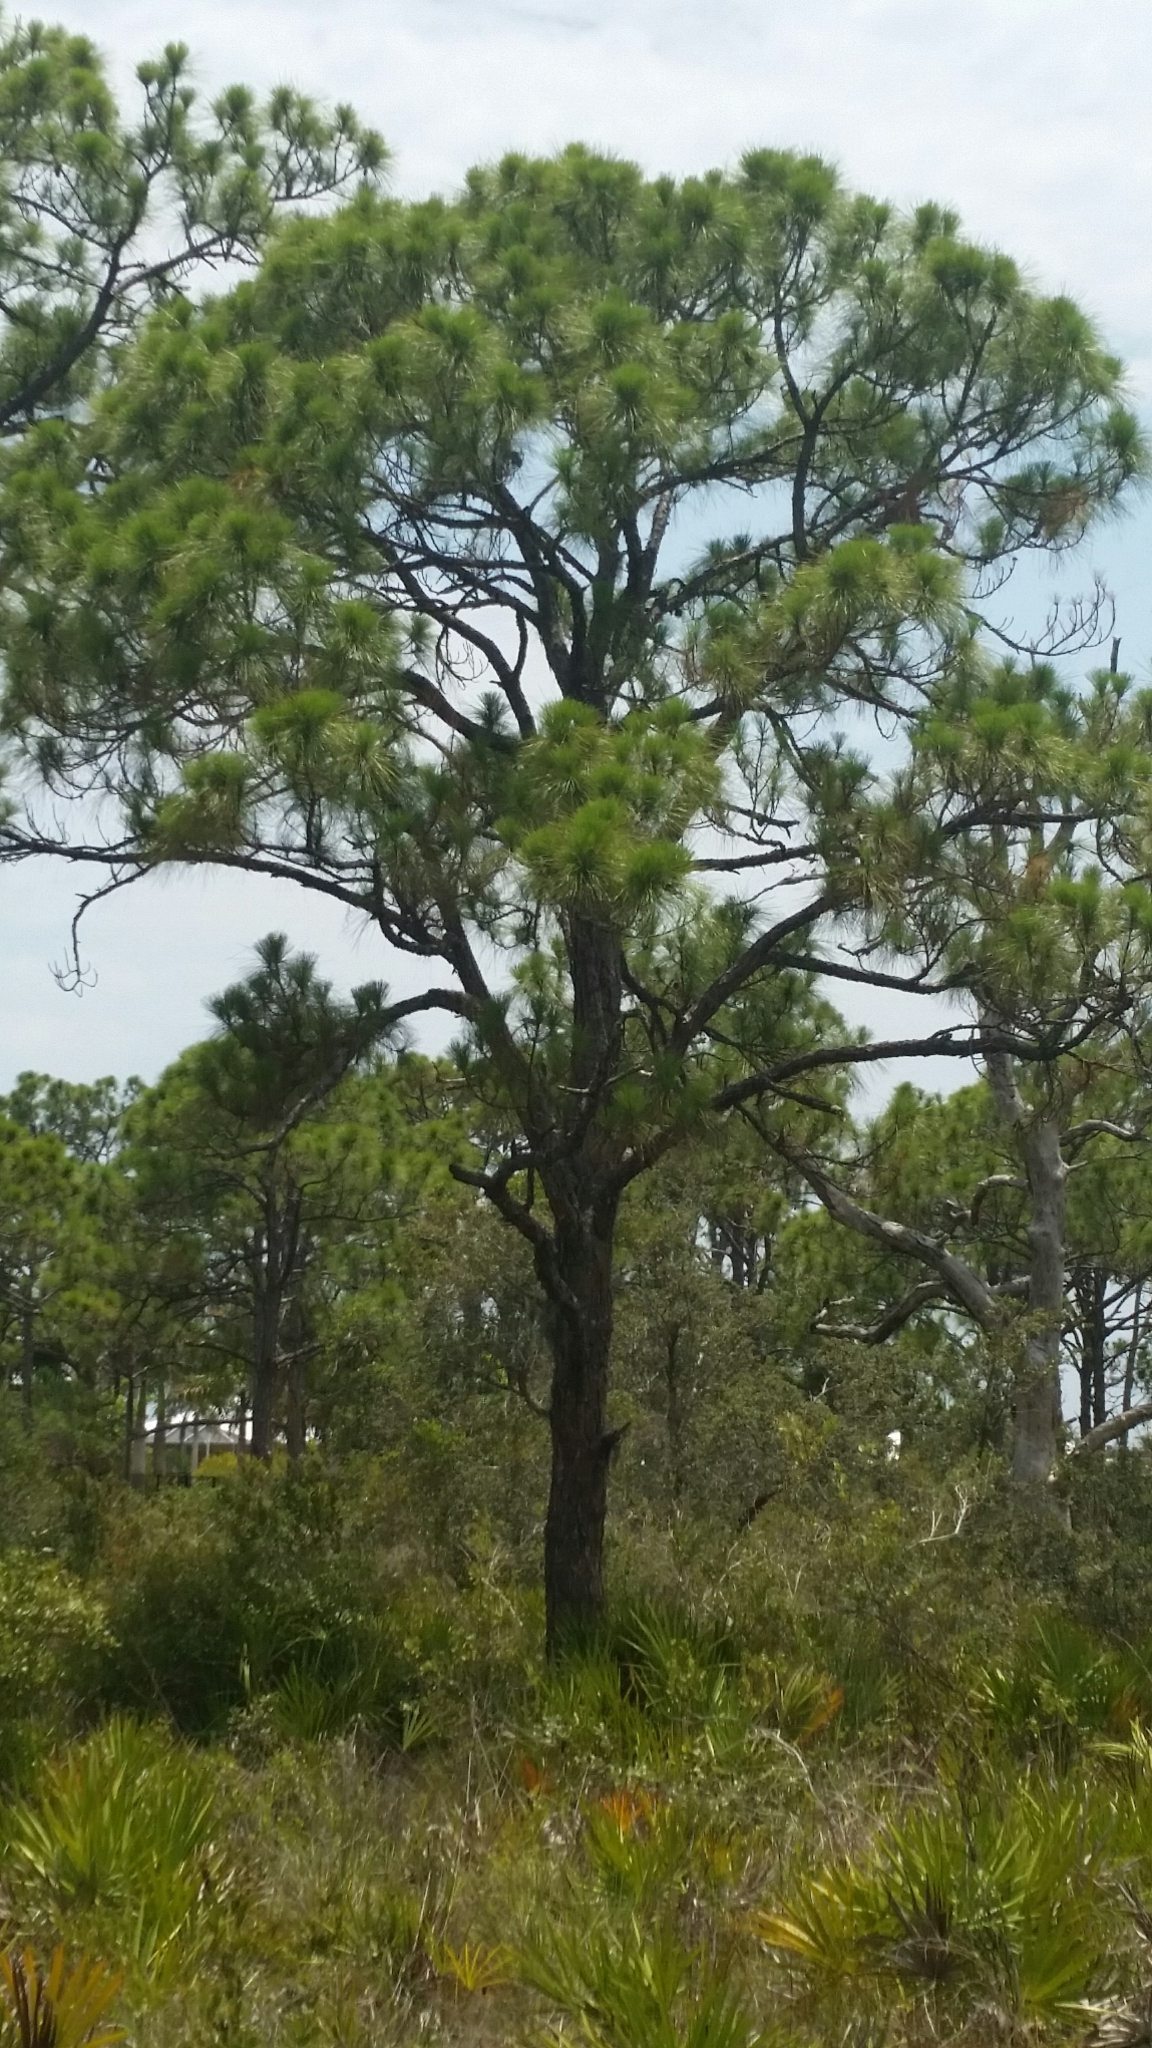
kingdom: Plantae
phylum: Tracheophyta
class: Pinopsida
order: Pinales
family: Pinaceae
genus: Pinus
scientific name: Pinus elliottii
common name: Slash pine
